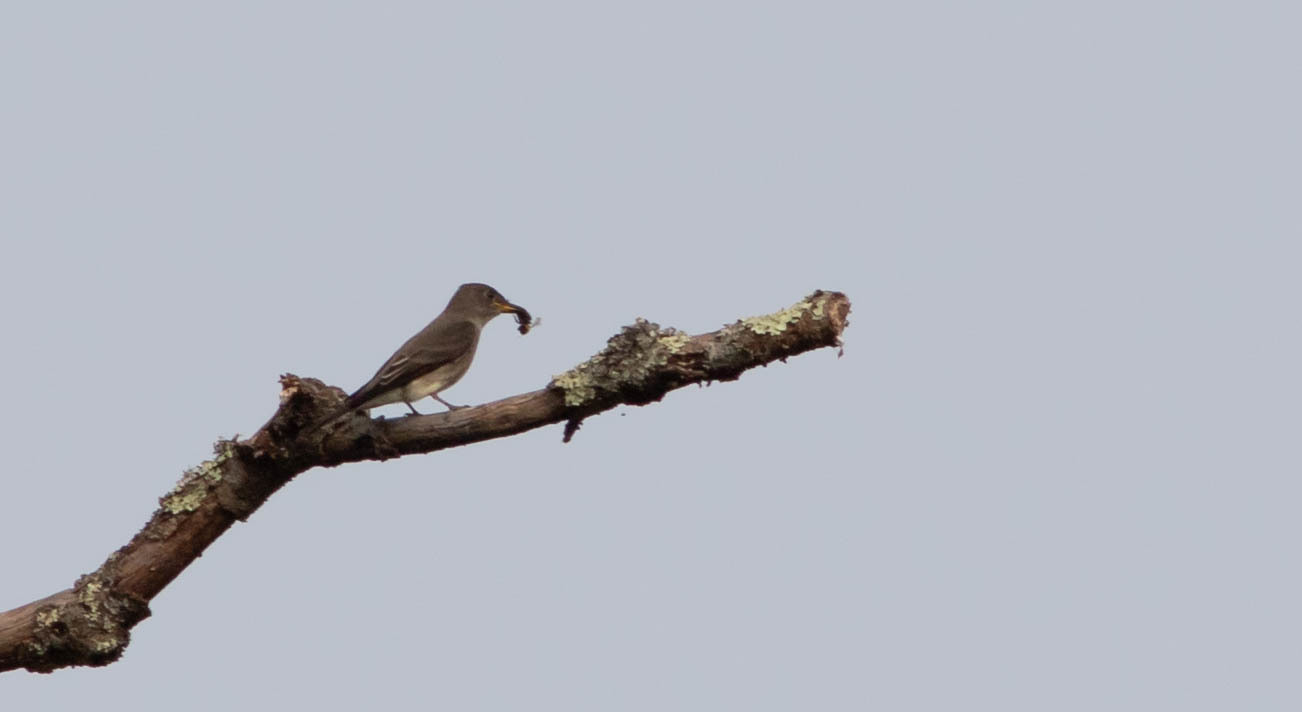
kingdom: Animalia
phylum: Chordata
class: Aves
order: Passeriformes
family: Tyrannidae
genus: Contopus
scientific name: Contopus virens
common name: Eastern wood-pewee
